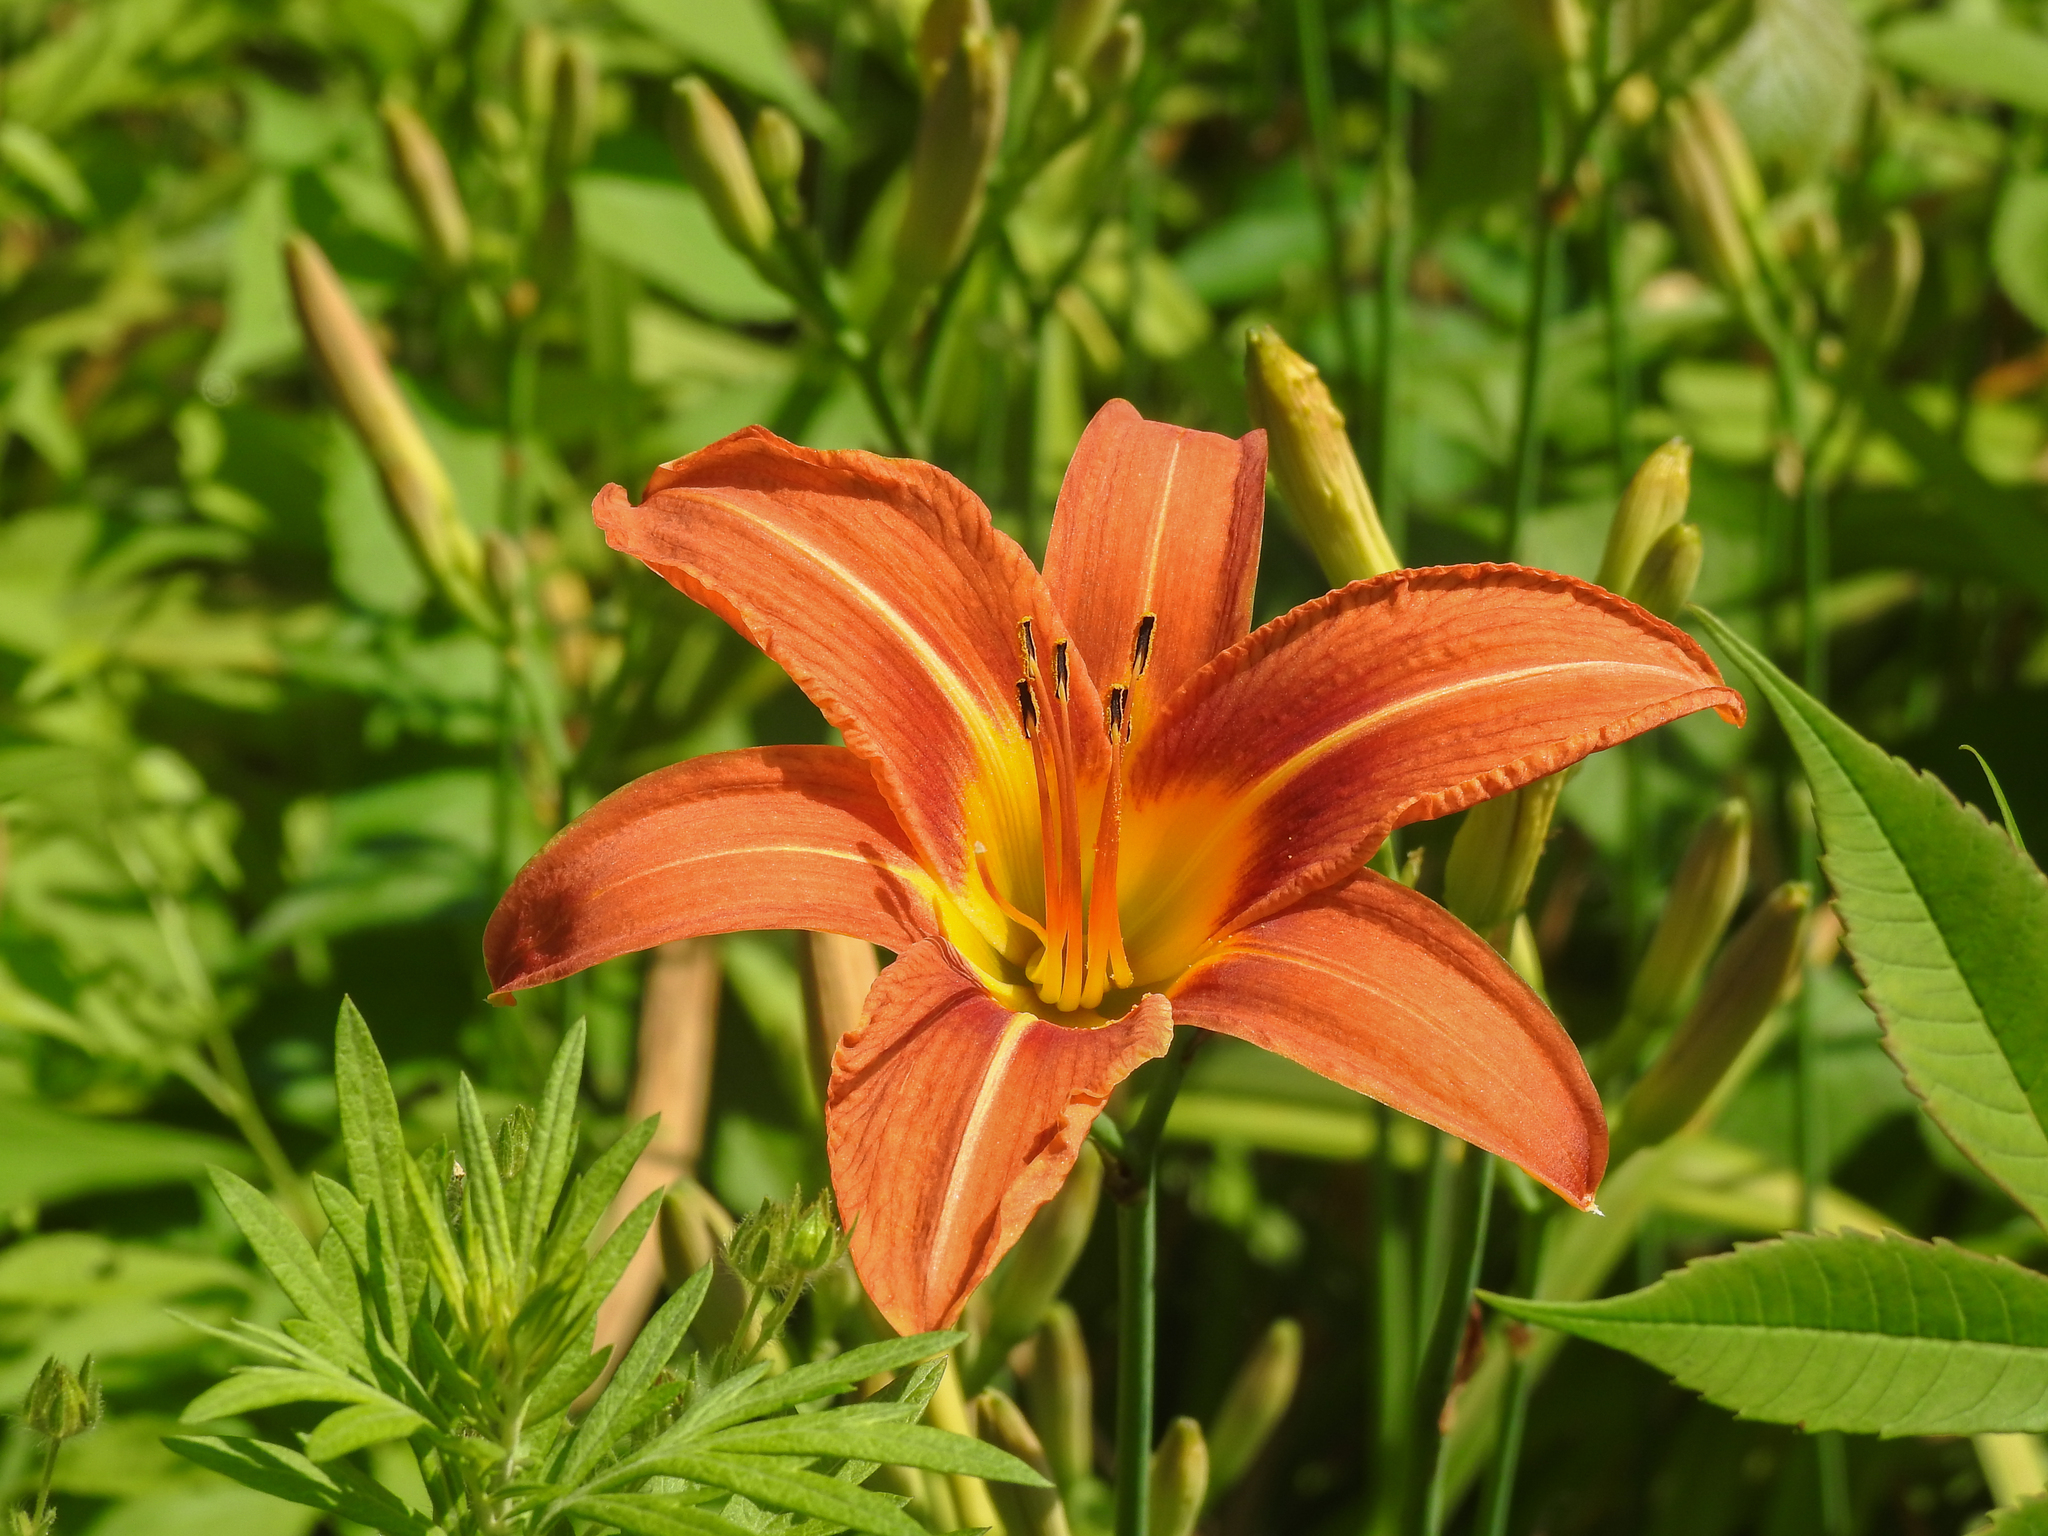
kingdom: Plantae
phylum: Tracheophyta
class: Liliopsida
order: Asparagales
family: Asphodelaceae
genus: Hemerocallis
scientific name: Hemerocallis fulva
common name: Orange day-lily
